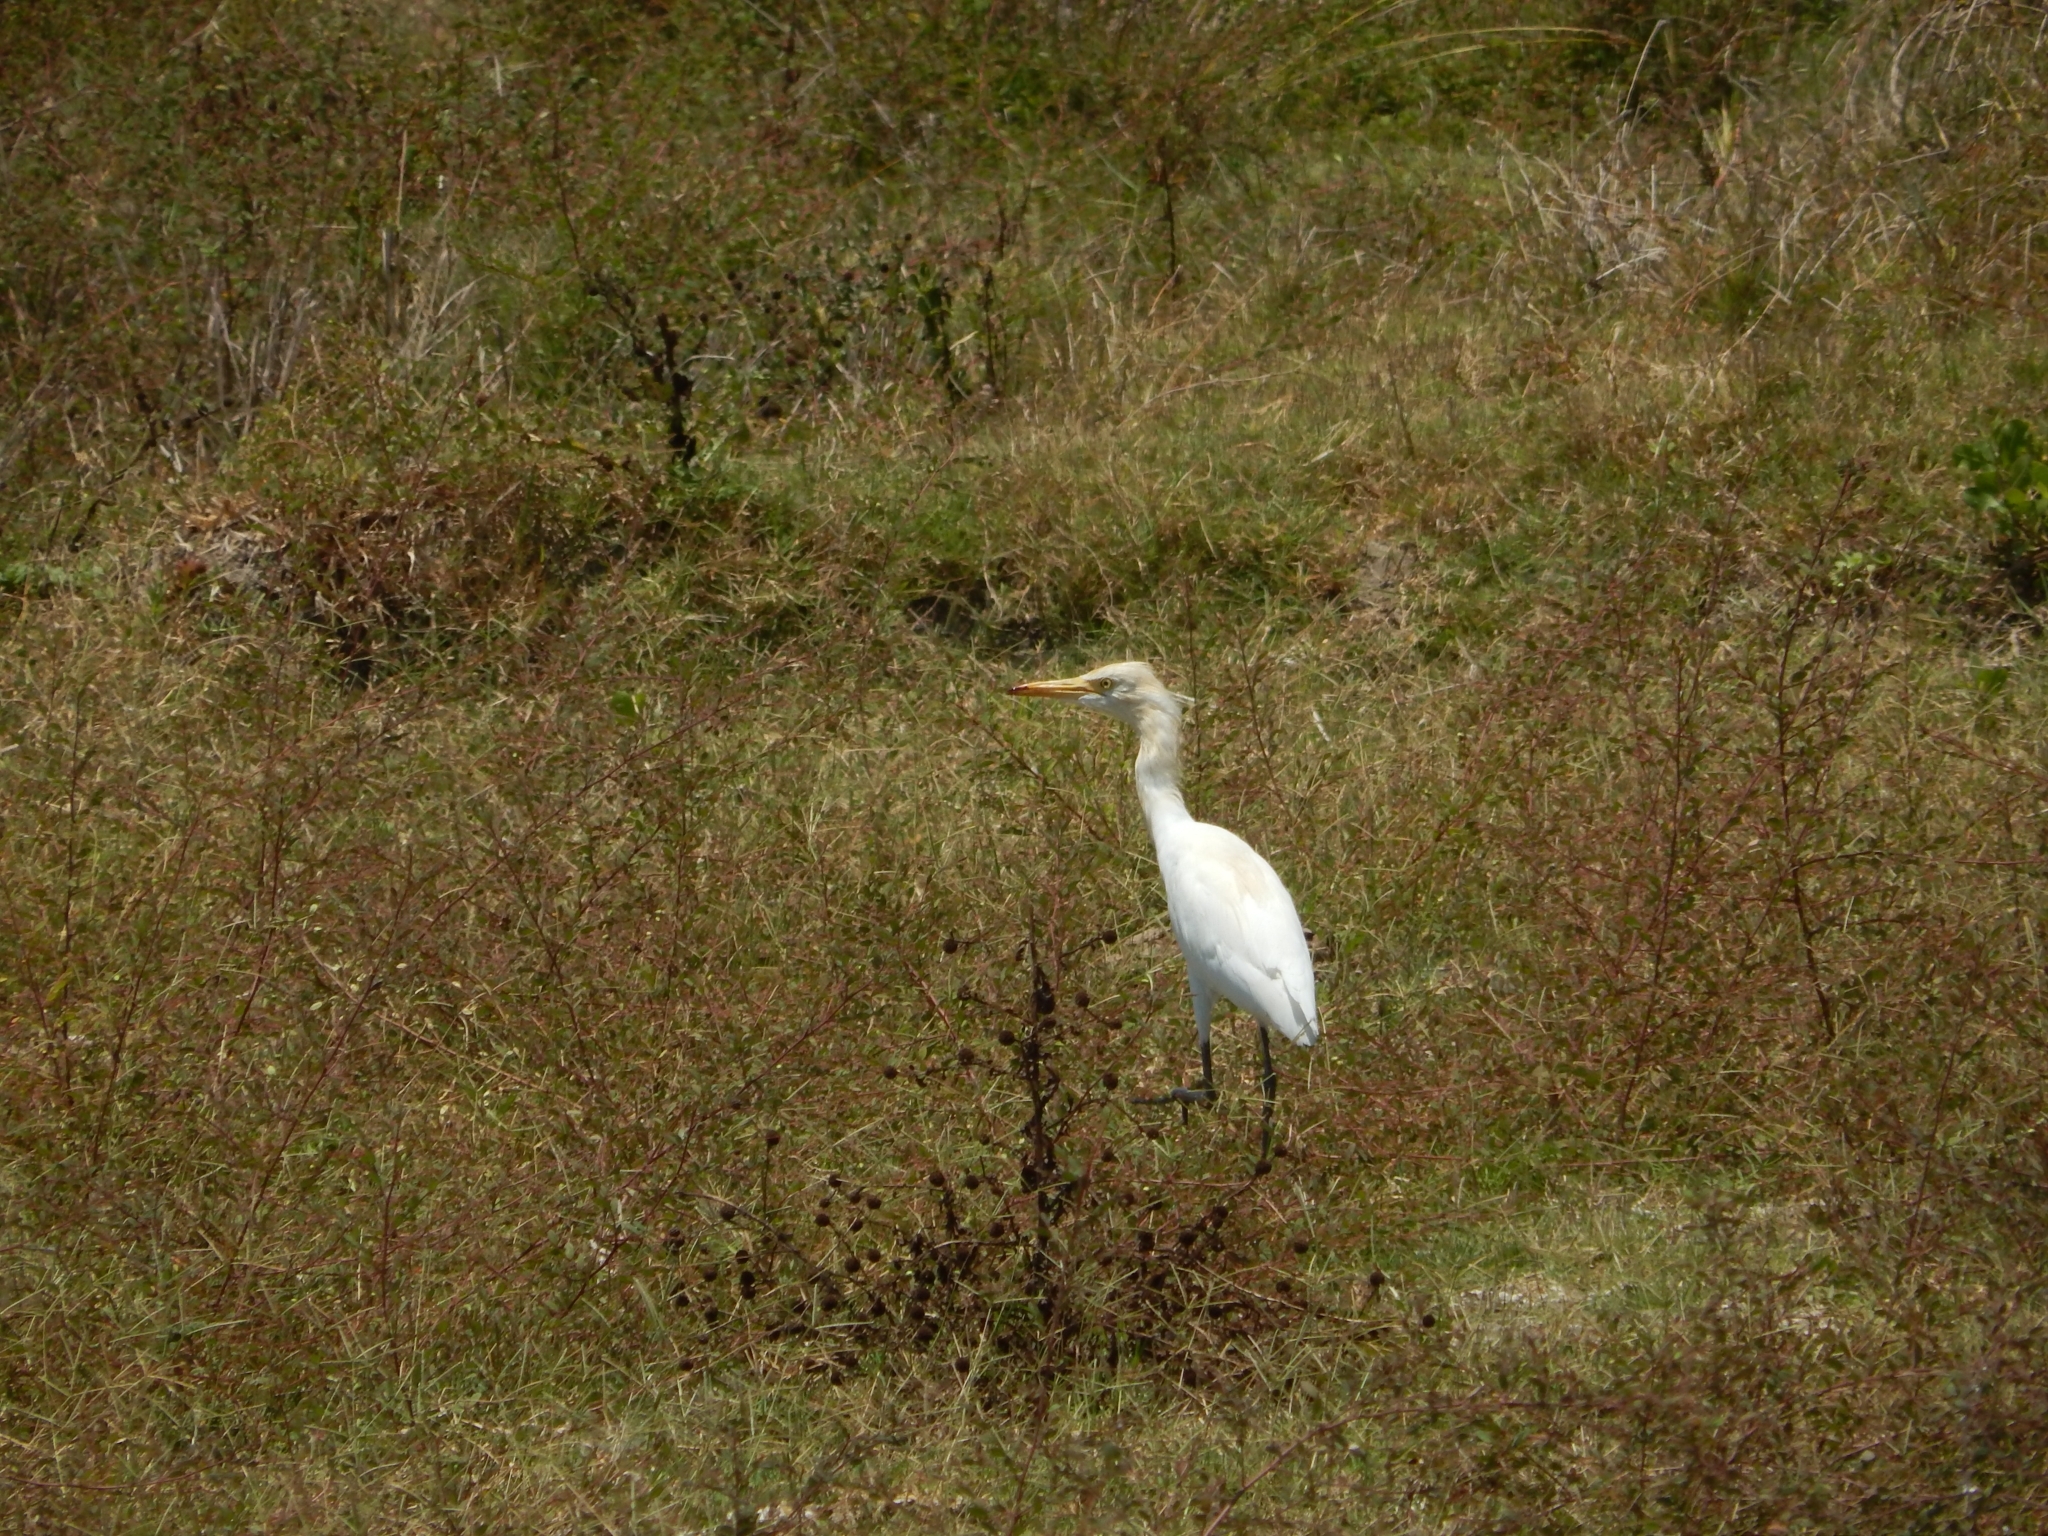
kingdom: Animalia
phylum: Chordata
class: Aves
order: Pelecaniformes
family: Ardeidae
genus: Bubulcus
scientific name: Bubulcus coromandus
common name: Eastern cattle egret
